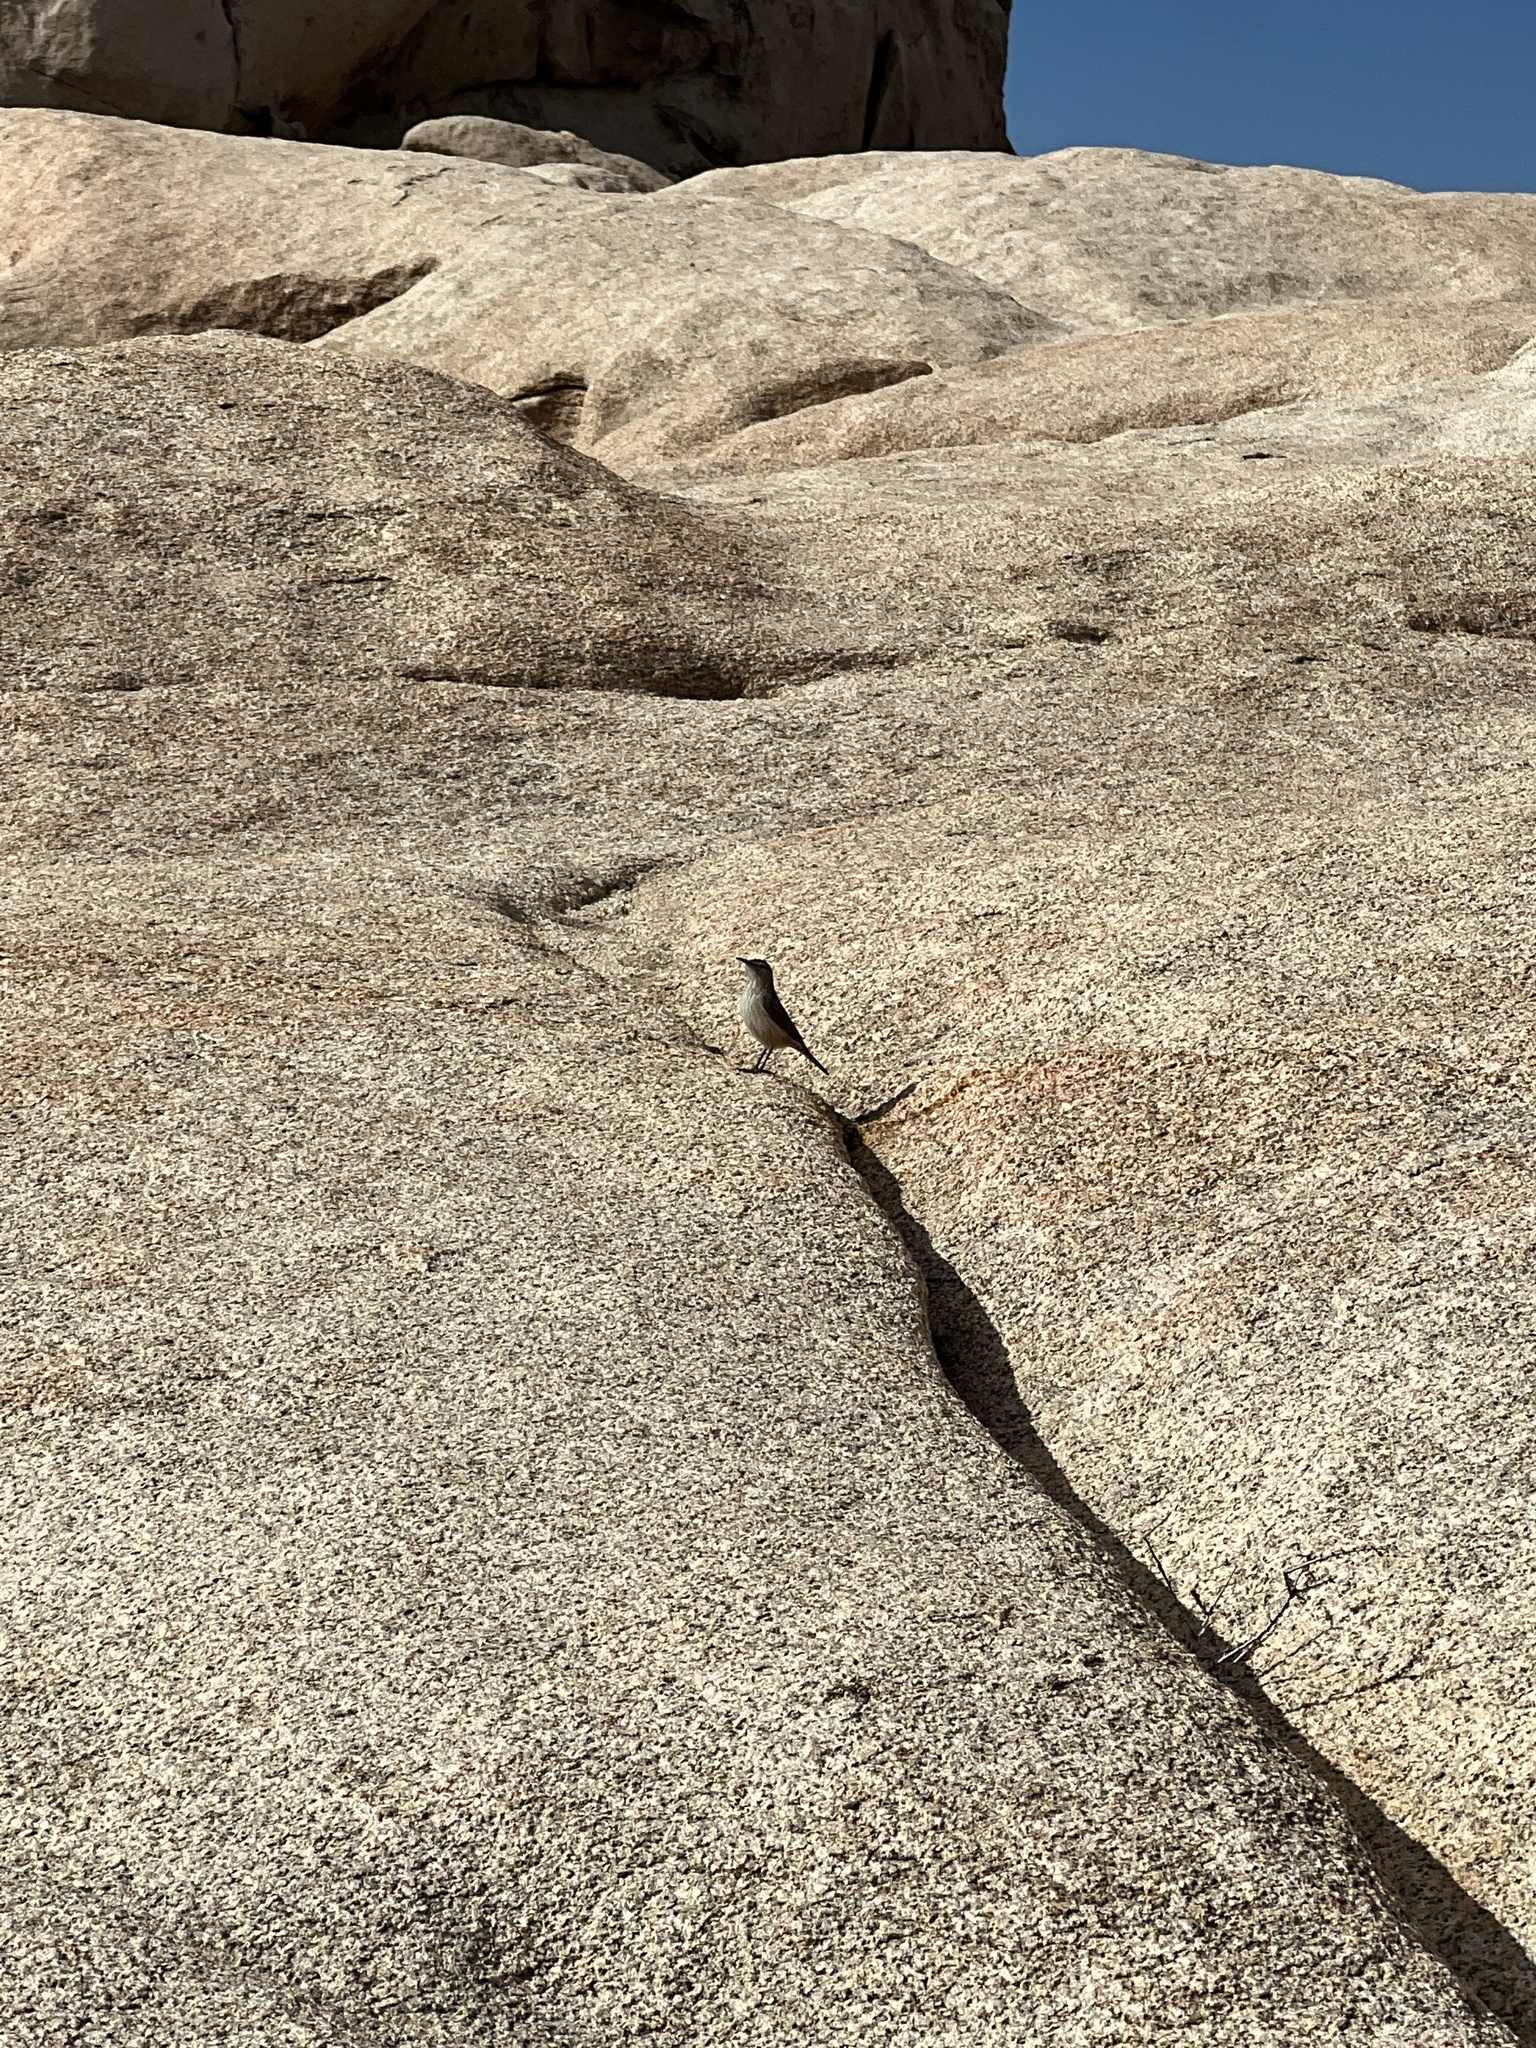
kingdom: Animalia
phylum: Chordata
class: Aves
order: Passeriformes
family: Troglodytidae
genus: Salpinctes
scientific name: Salpinctes obsoletus
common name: Rock wren
